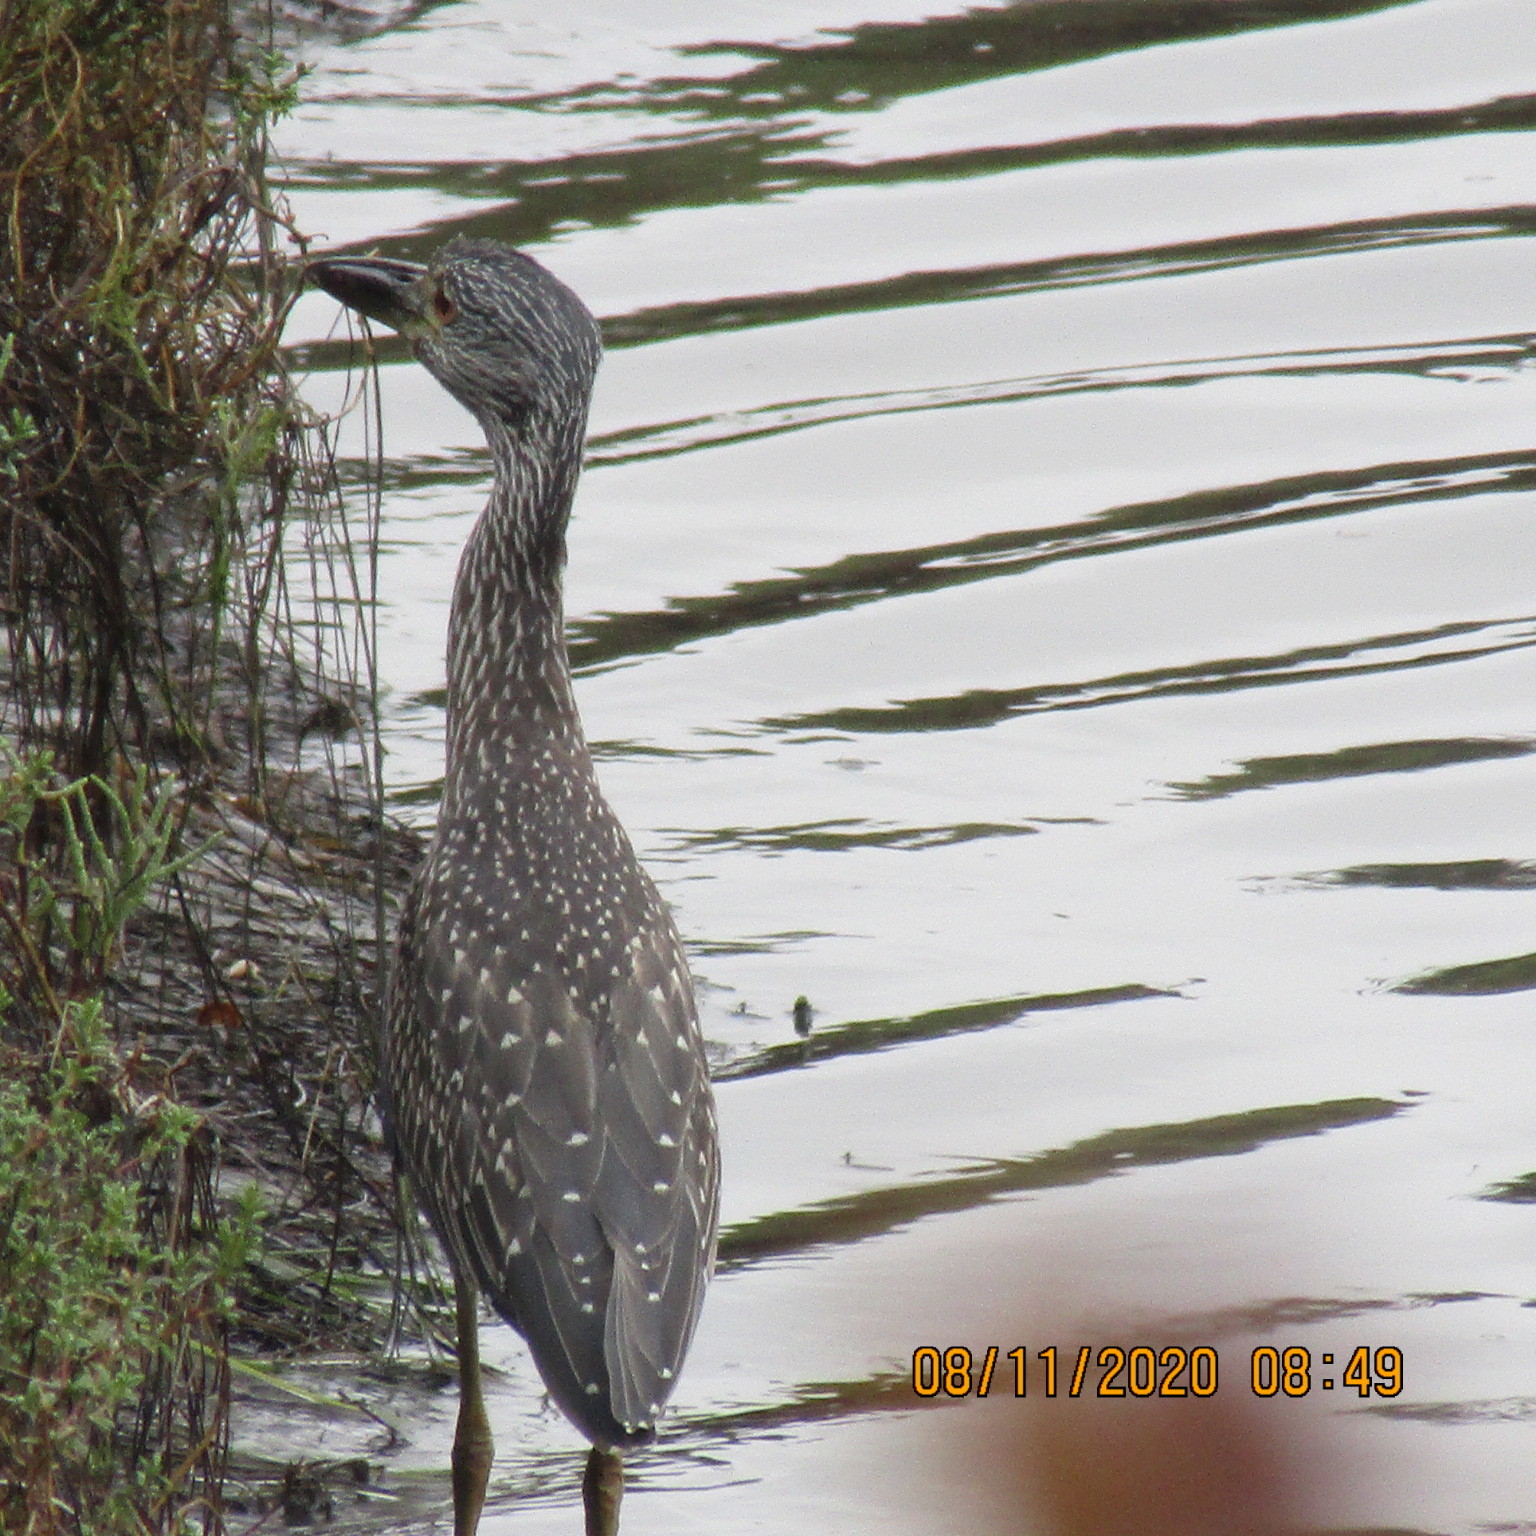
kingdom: Animalia
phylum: Chordata
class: Aves
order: Pelecaniformes
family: Ardeidae
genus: Nyctanassa
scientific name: Nyctanassa violacea
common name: Yellow-crowned night heron
